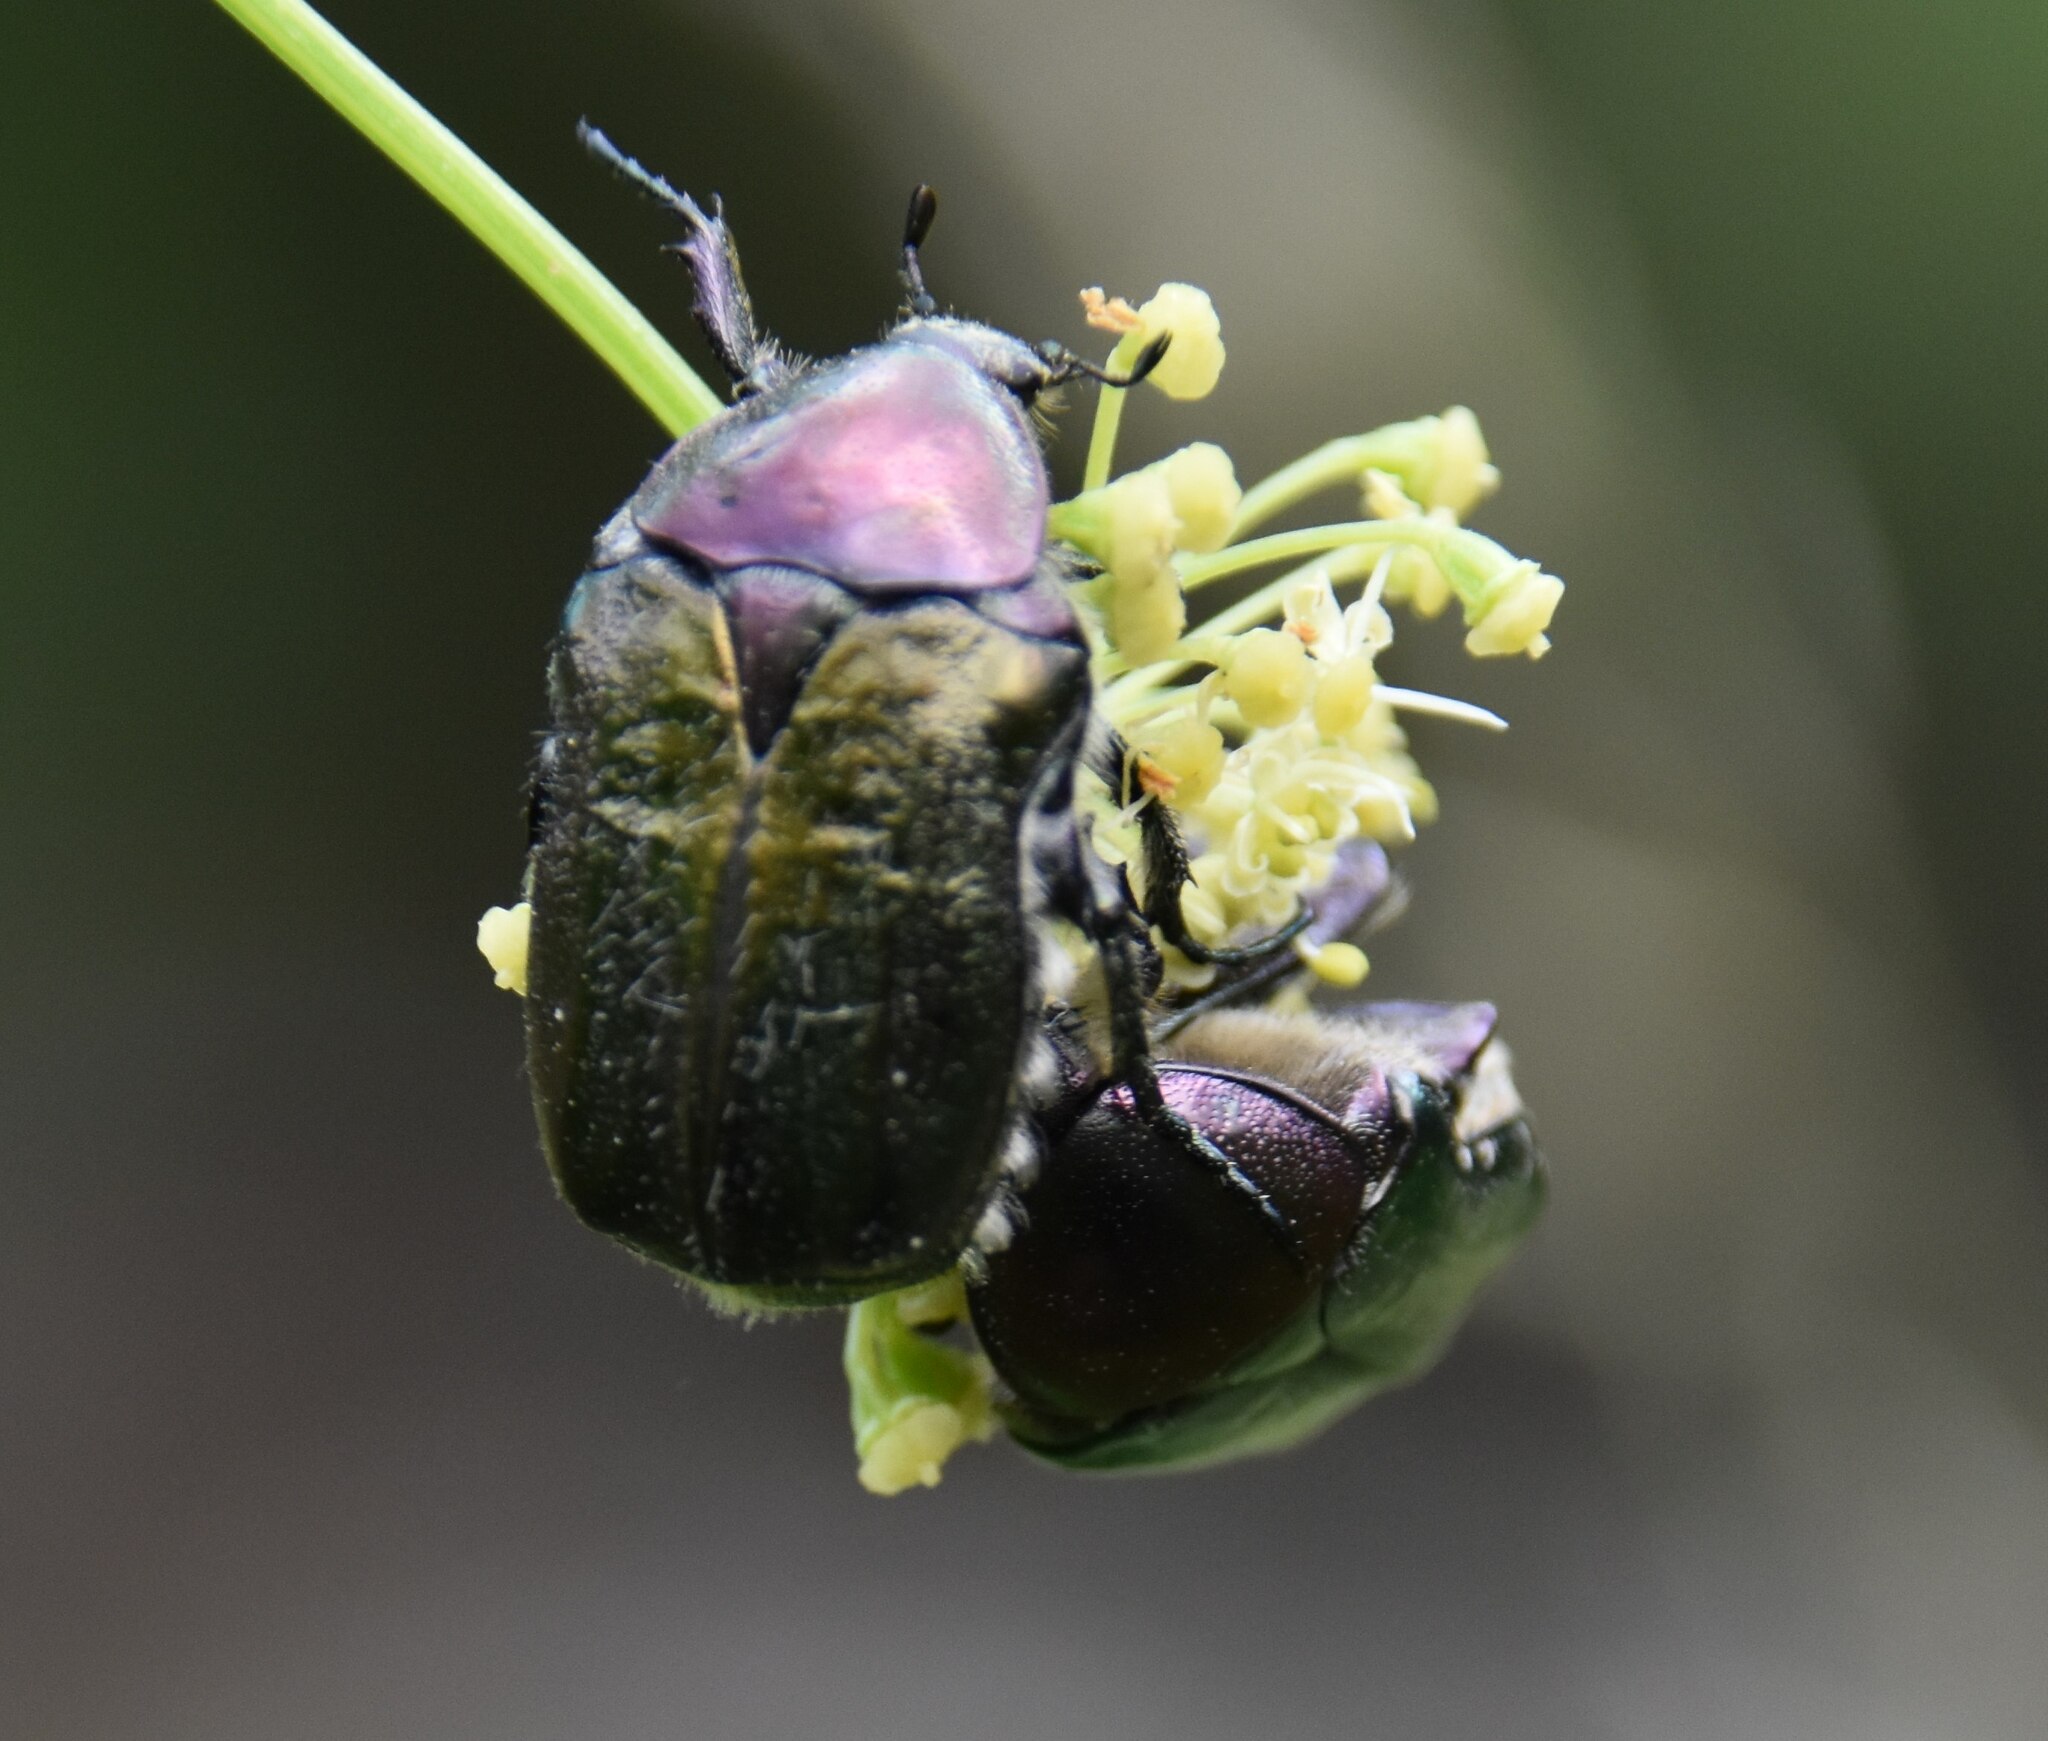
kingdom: Animalia
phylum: Arthropoda
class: Insecta
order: Coleoptera
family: Scarabaeidae
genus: Cetonia
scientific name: Cetonia aurata
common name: Rose chafer
